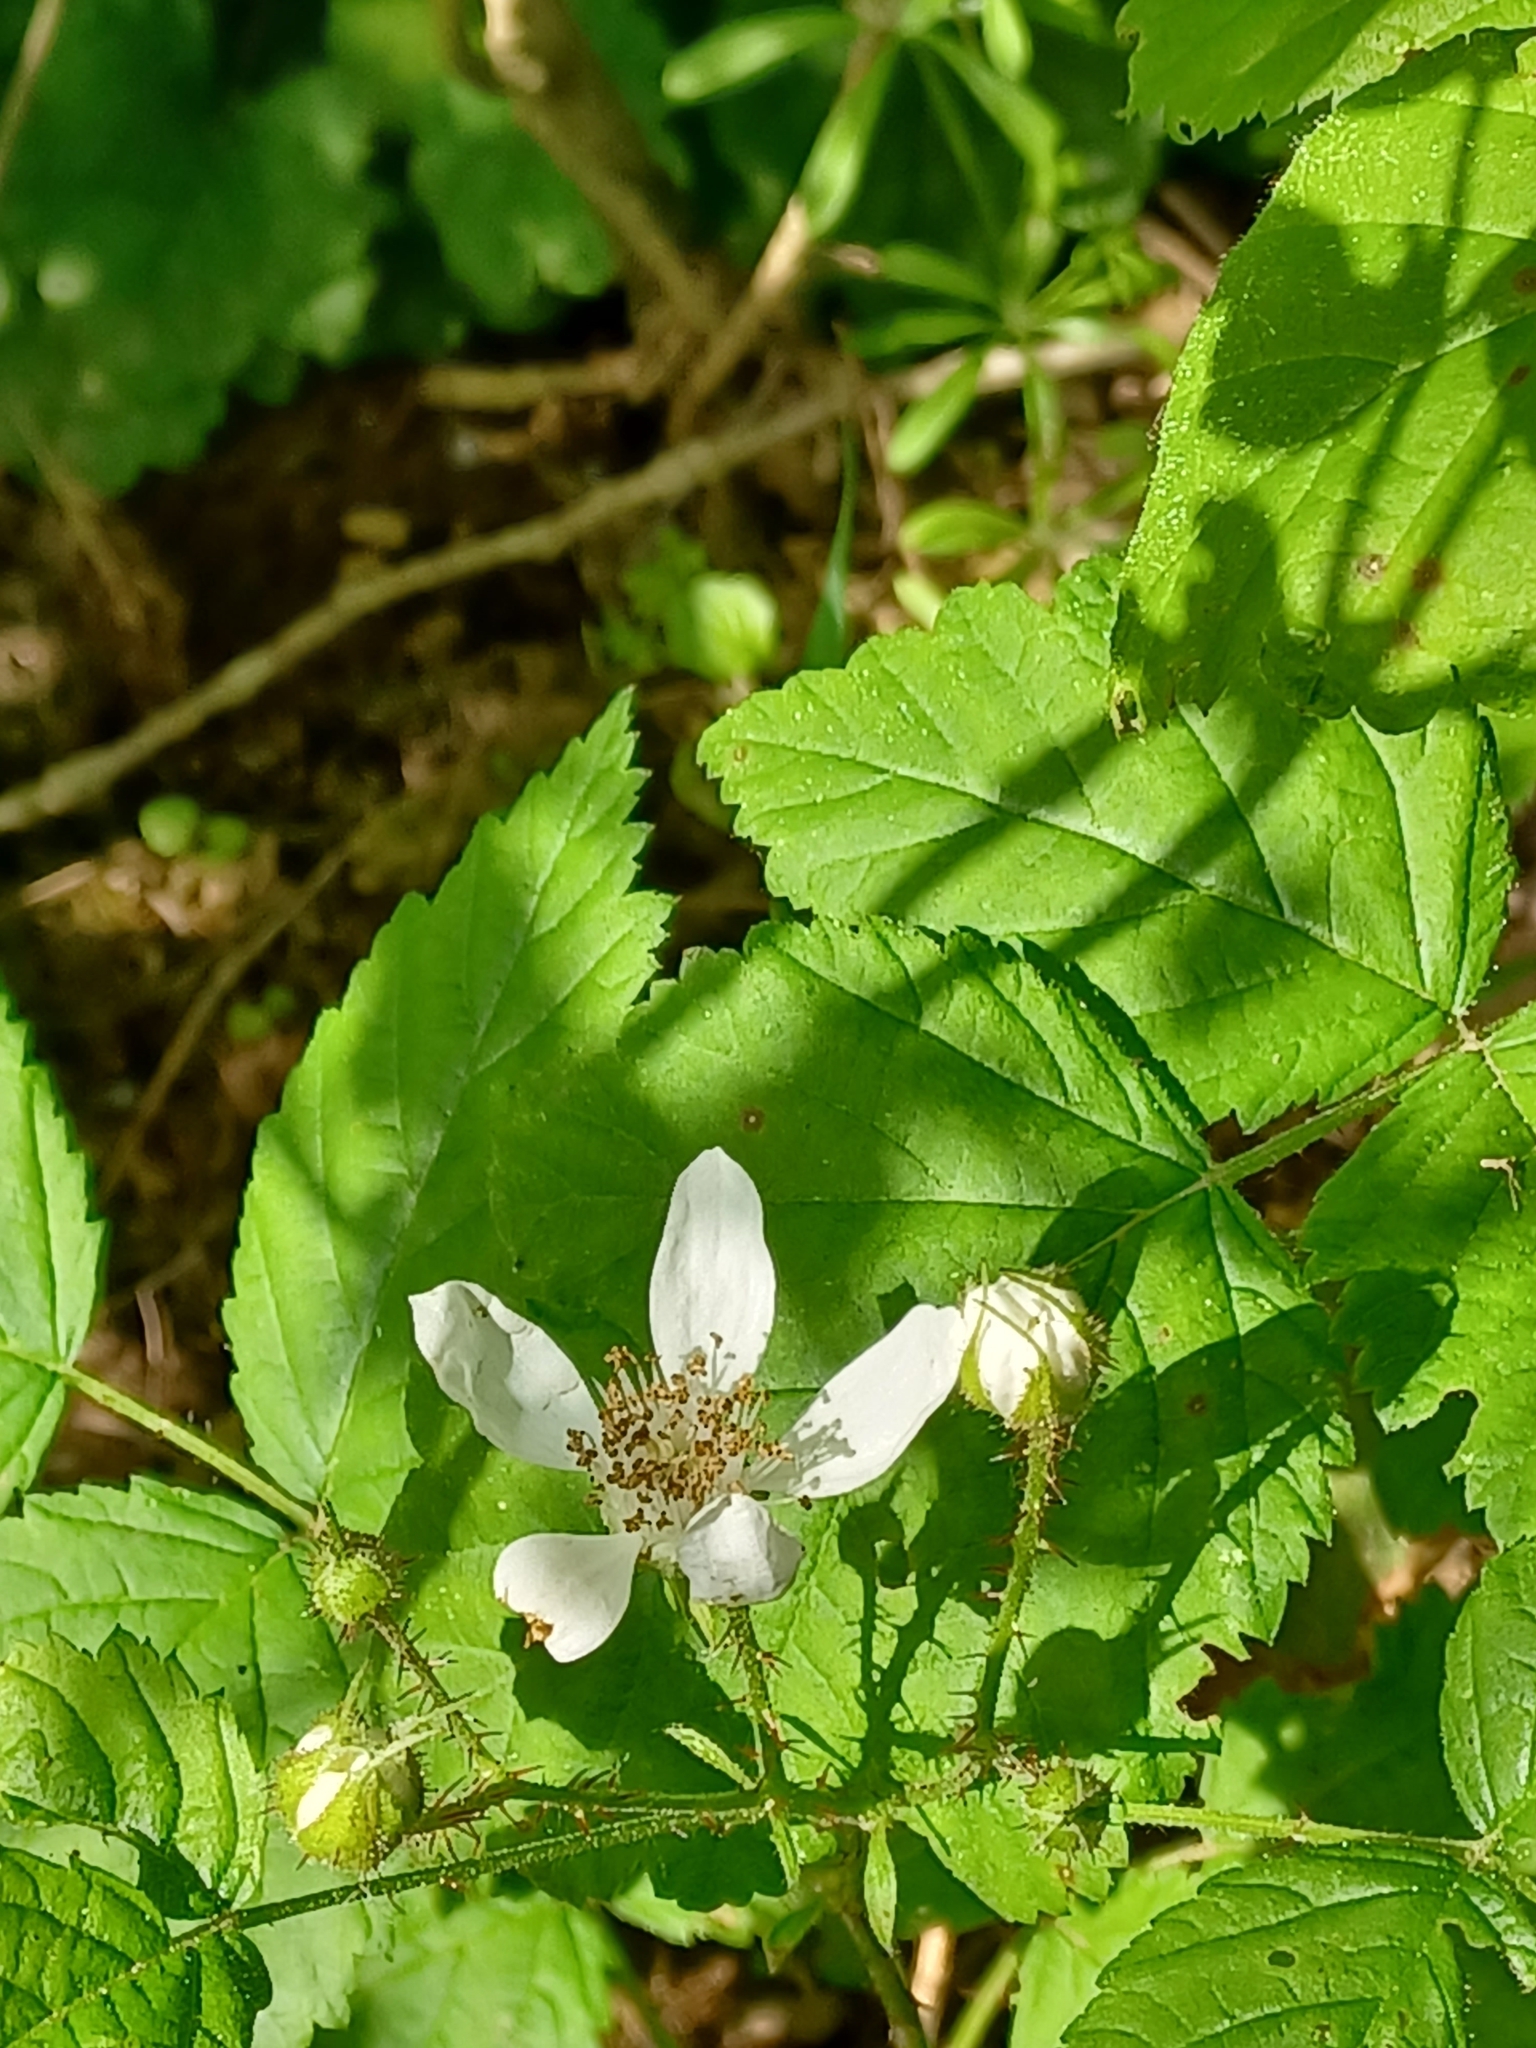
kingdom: Plantae
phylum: Tracheophyta
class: Magnoliopsida
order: Rosales
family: Rosaceae
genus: Rubus
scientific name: Rubus ursinus
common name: Pacific blackberry
